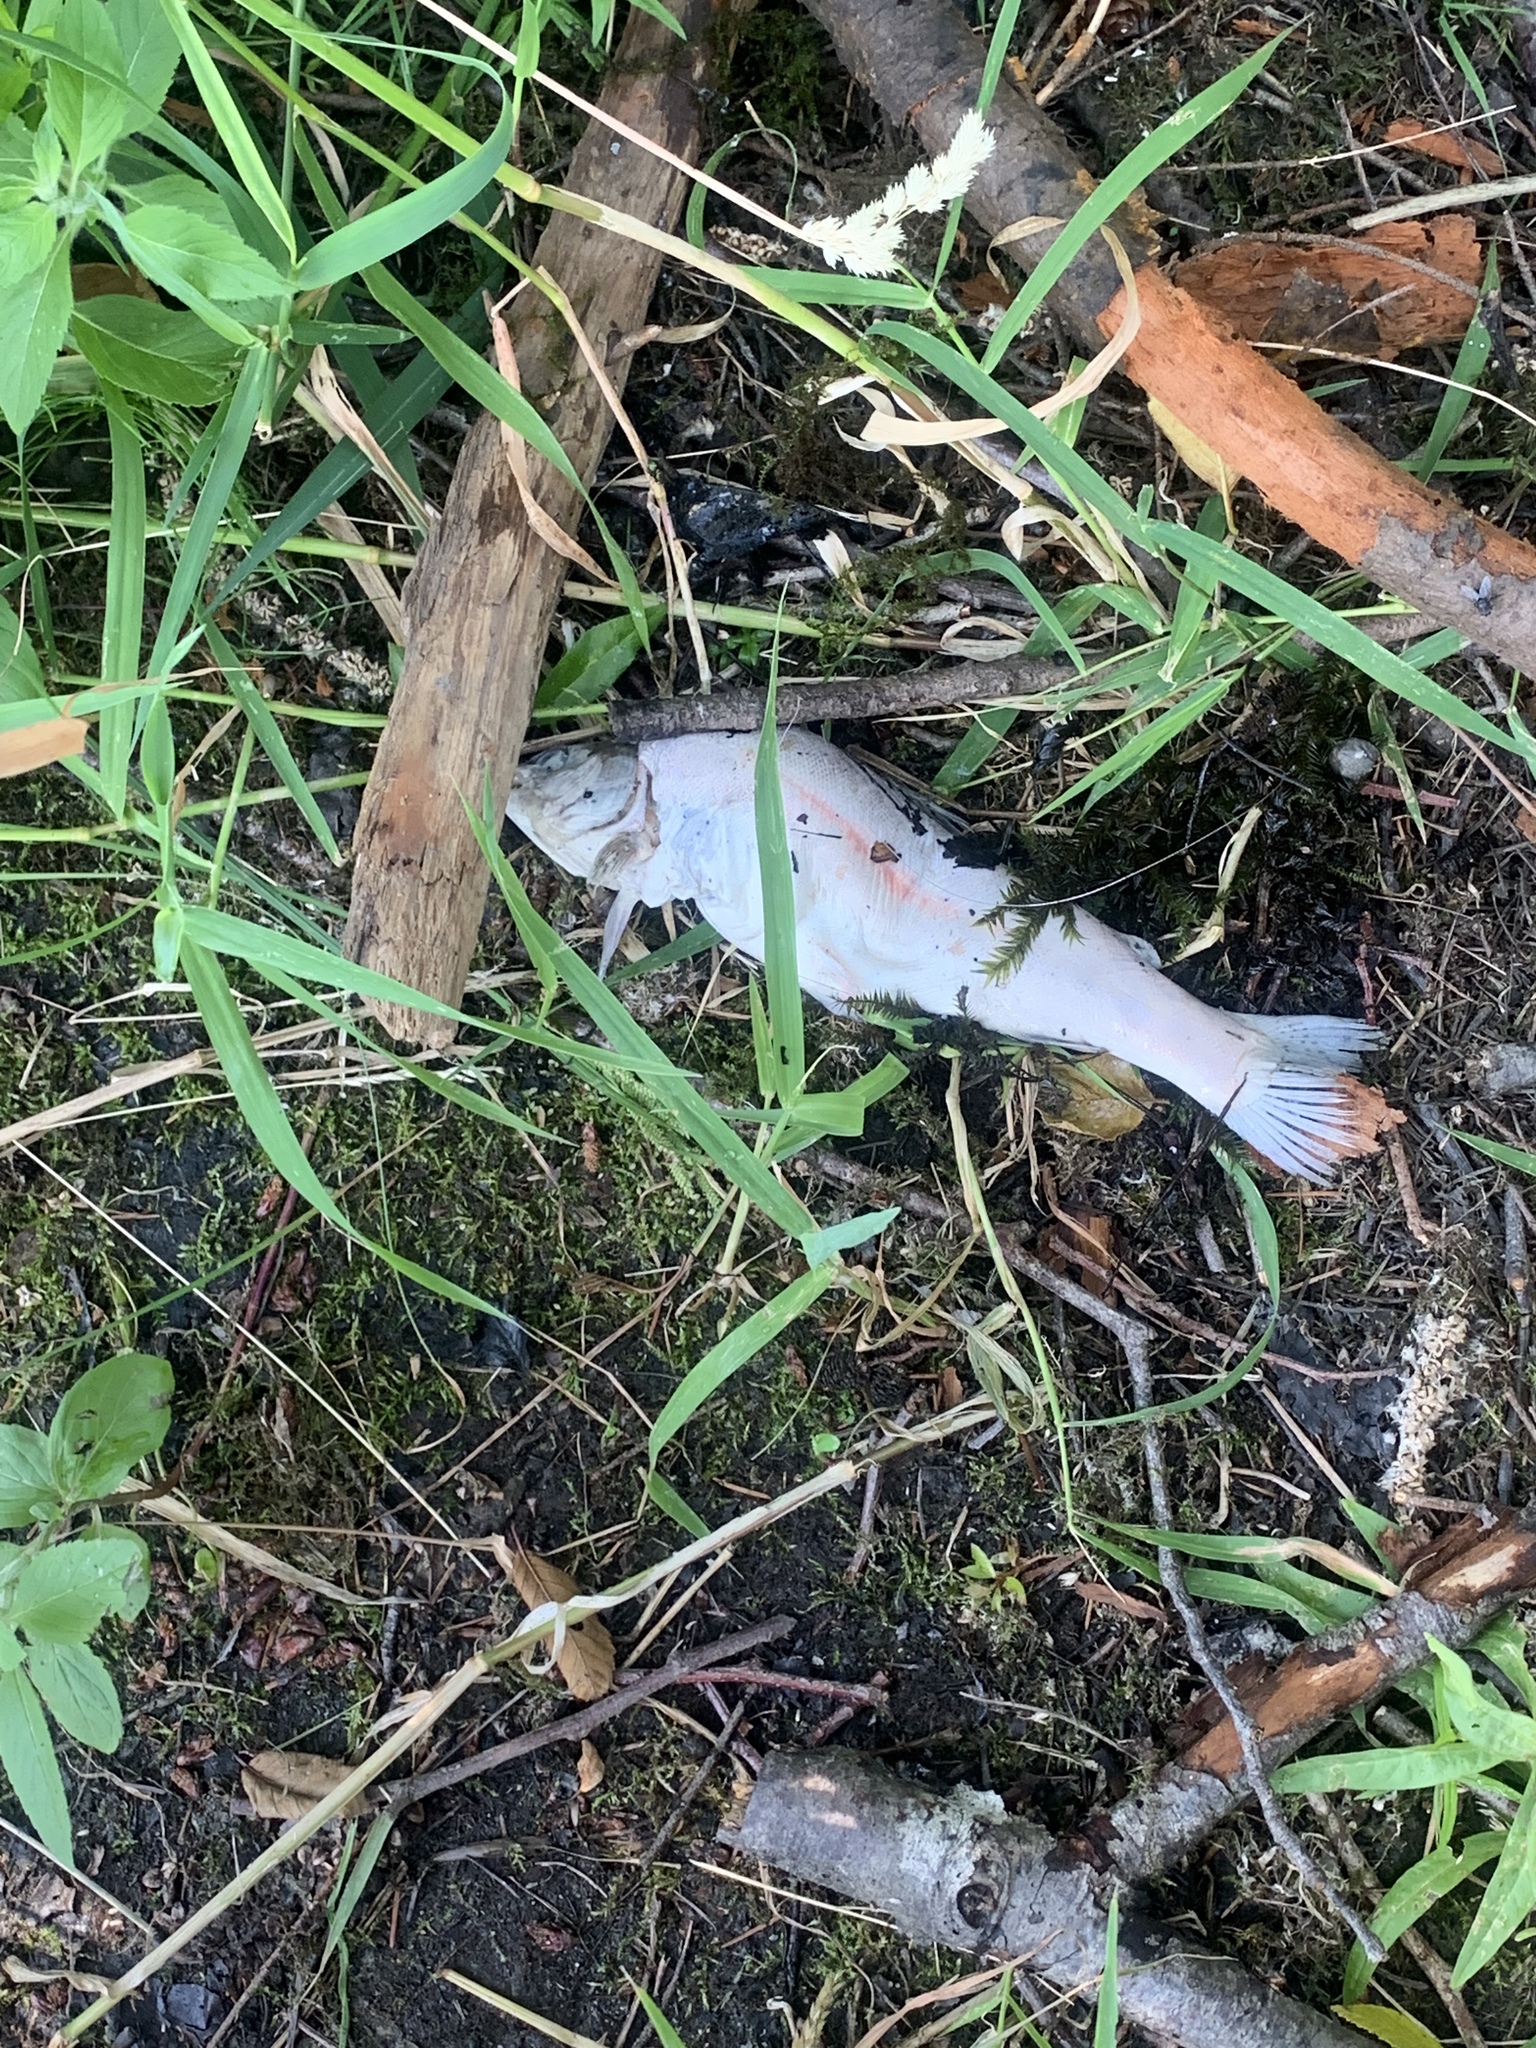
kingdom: Animalia
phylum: Chordata
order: Salmoniformes
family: Salmonidae
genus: Oncorhynchus
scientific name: Oncorhynchus mykiss
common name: Rainbow trout
